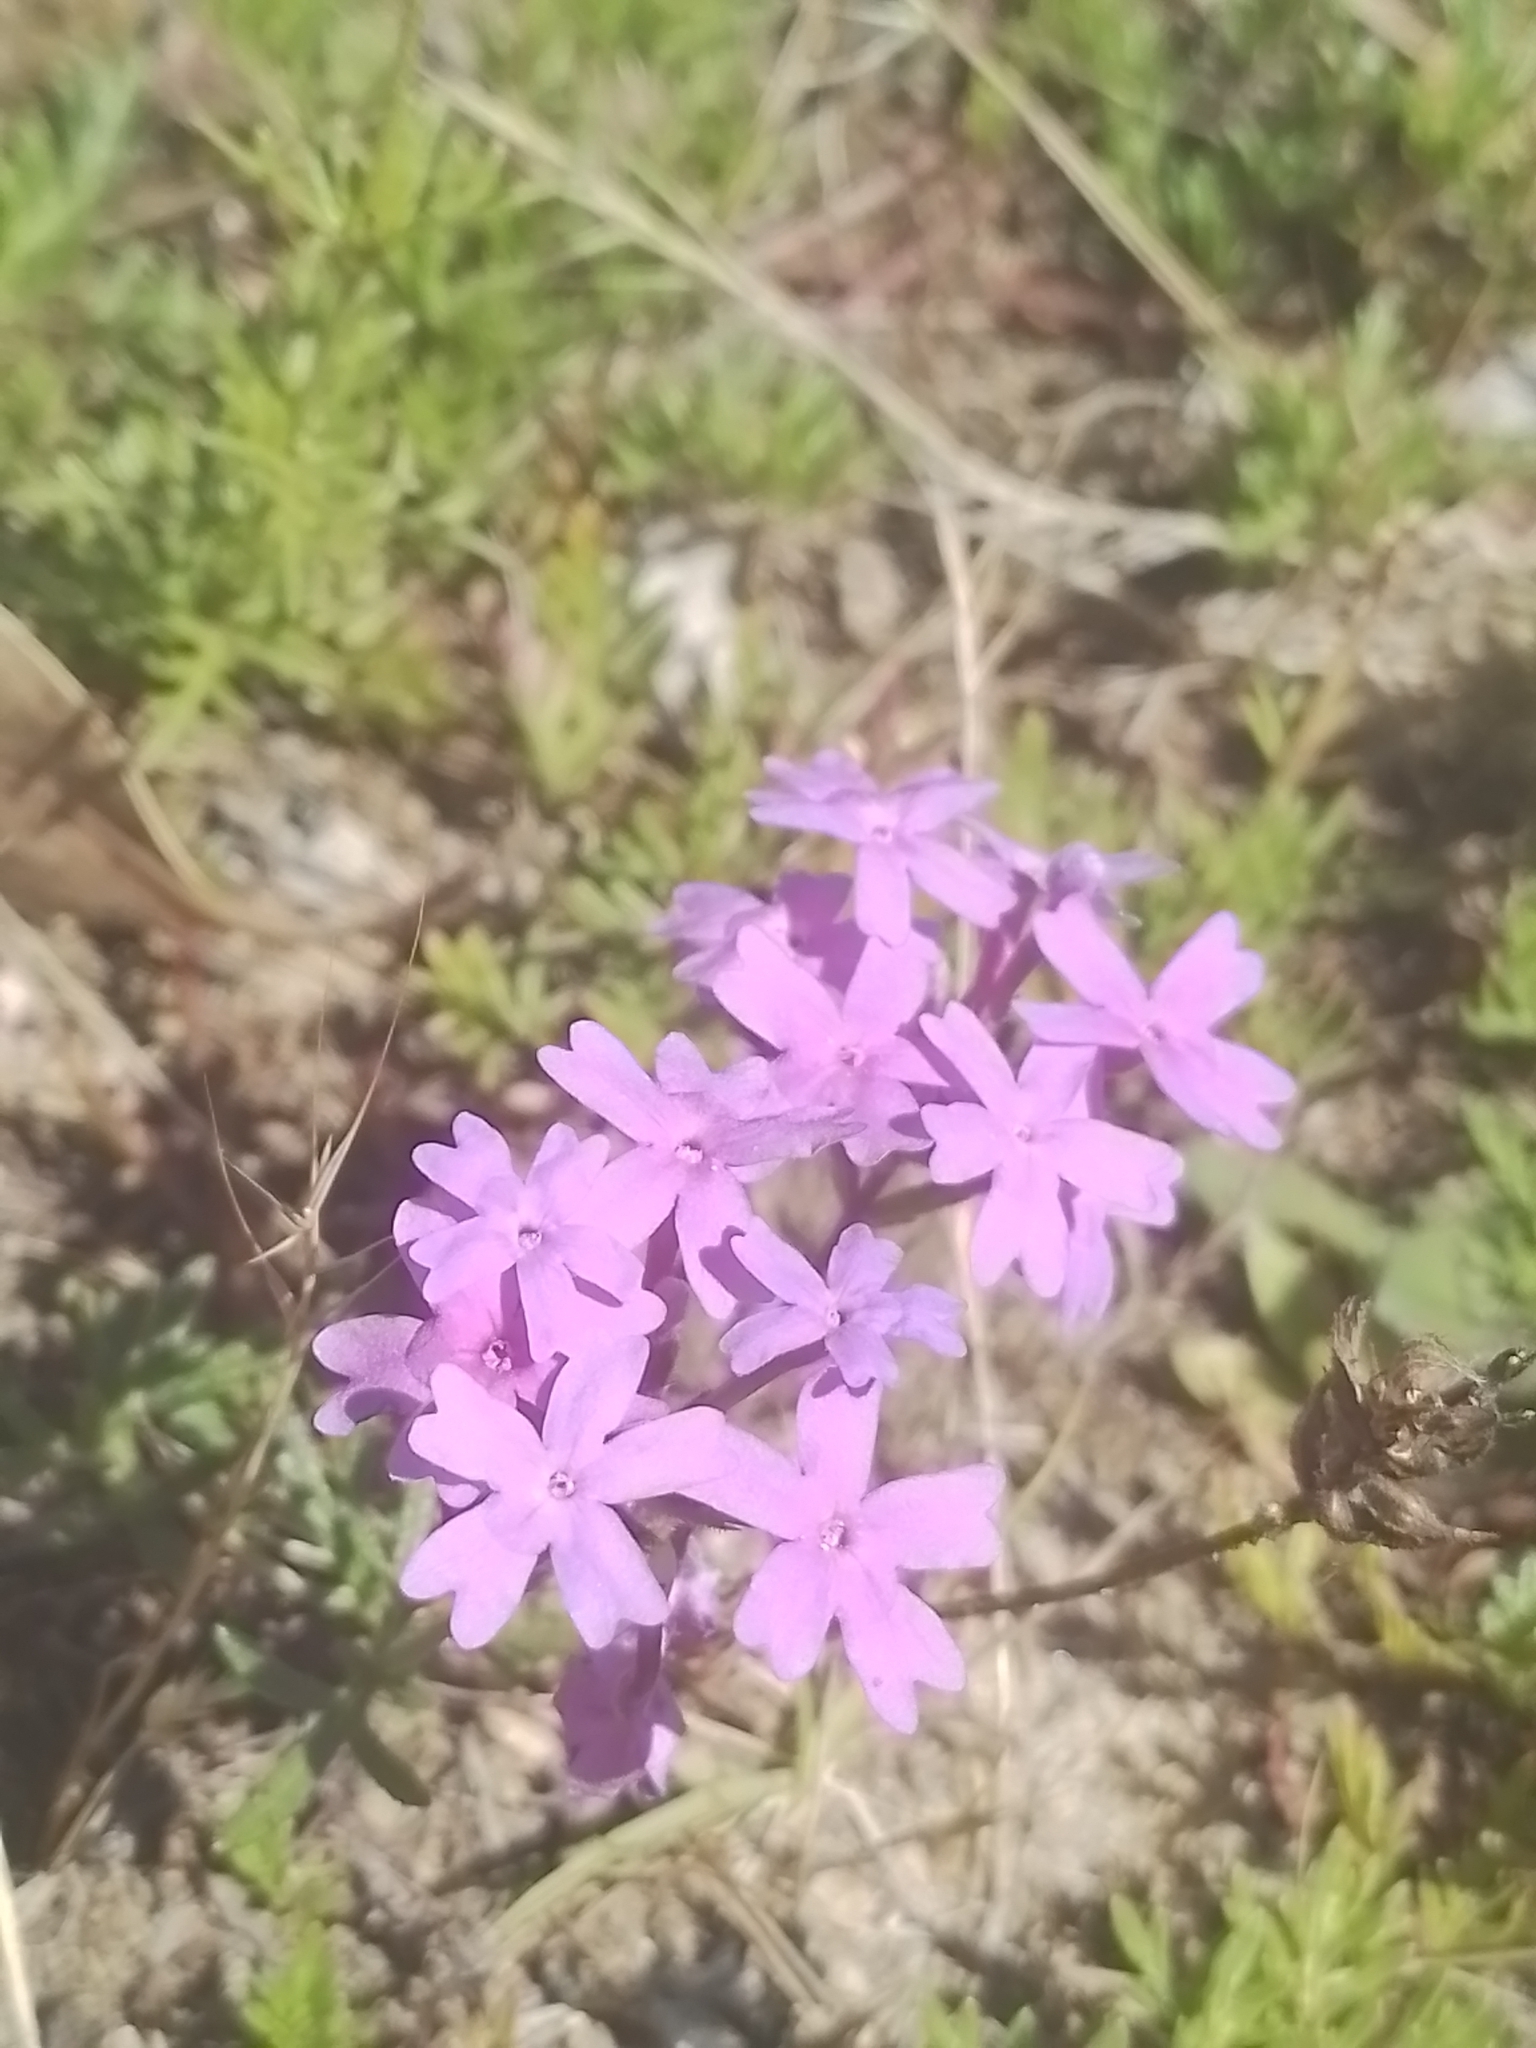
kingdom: Plantae
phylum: Tracheophyta
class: Magnoliopsida
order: Lamiales
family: Verbenaceae
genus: Verbena
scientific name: Verbena selloi
